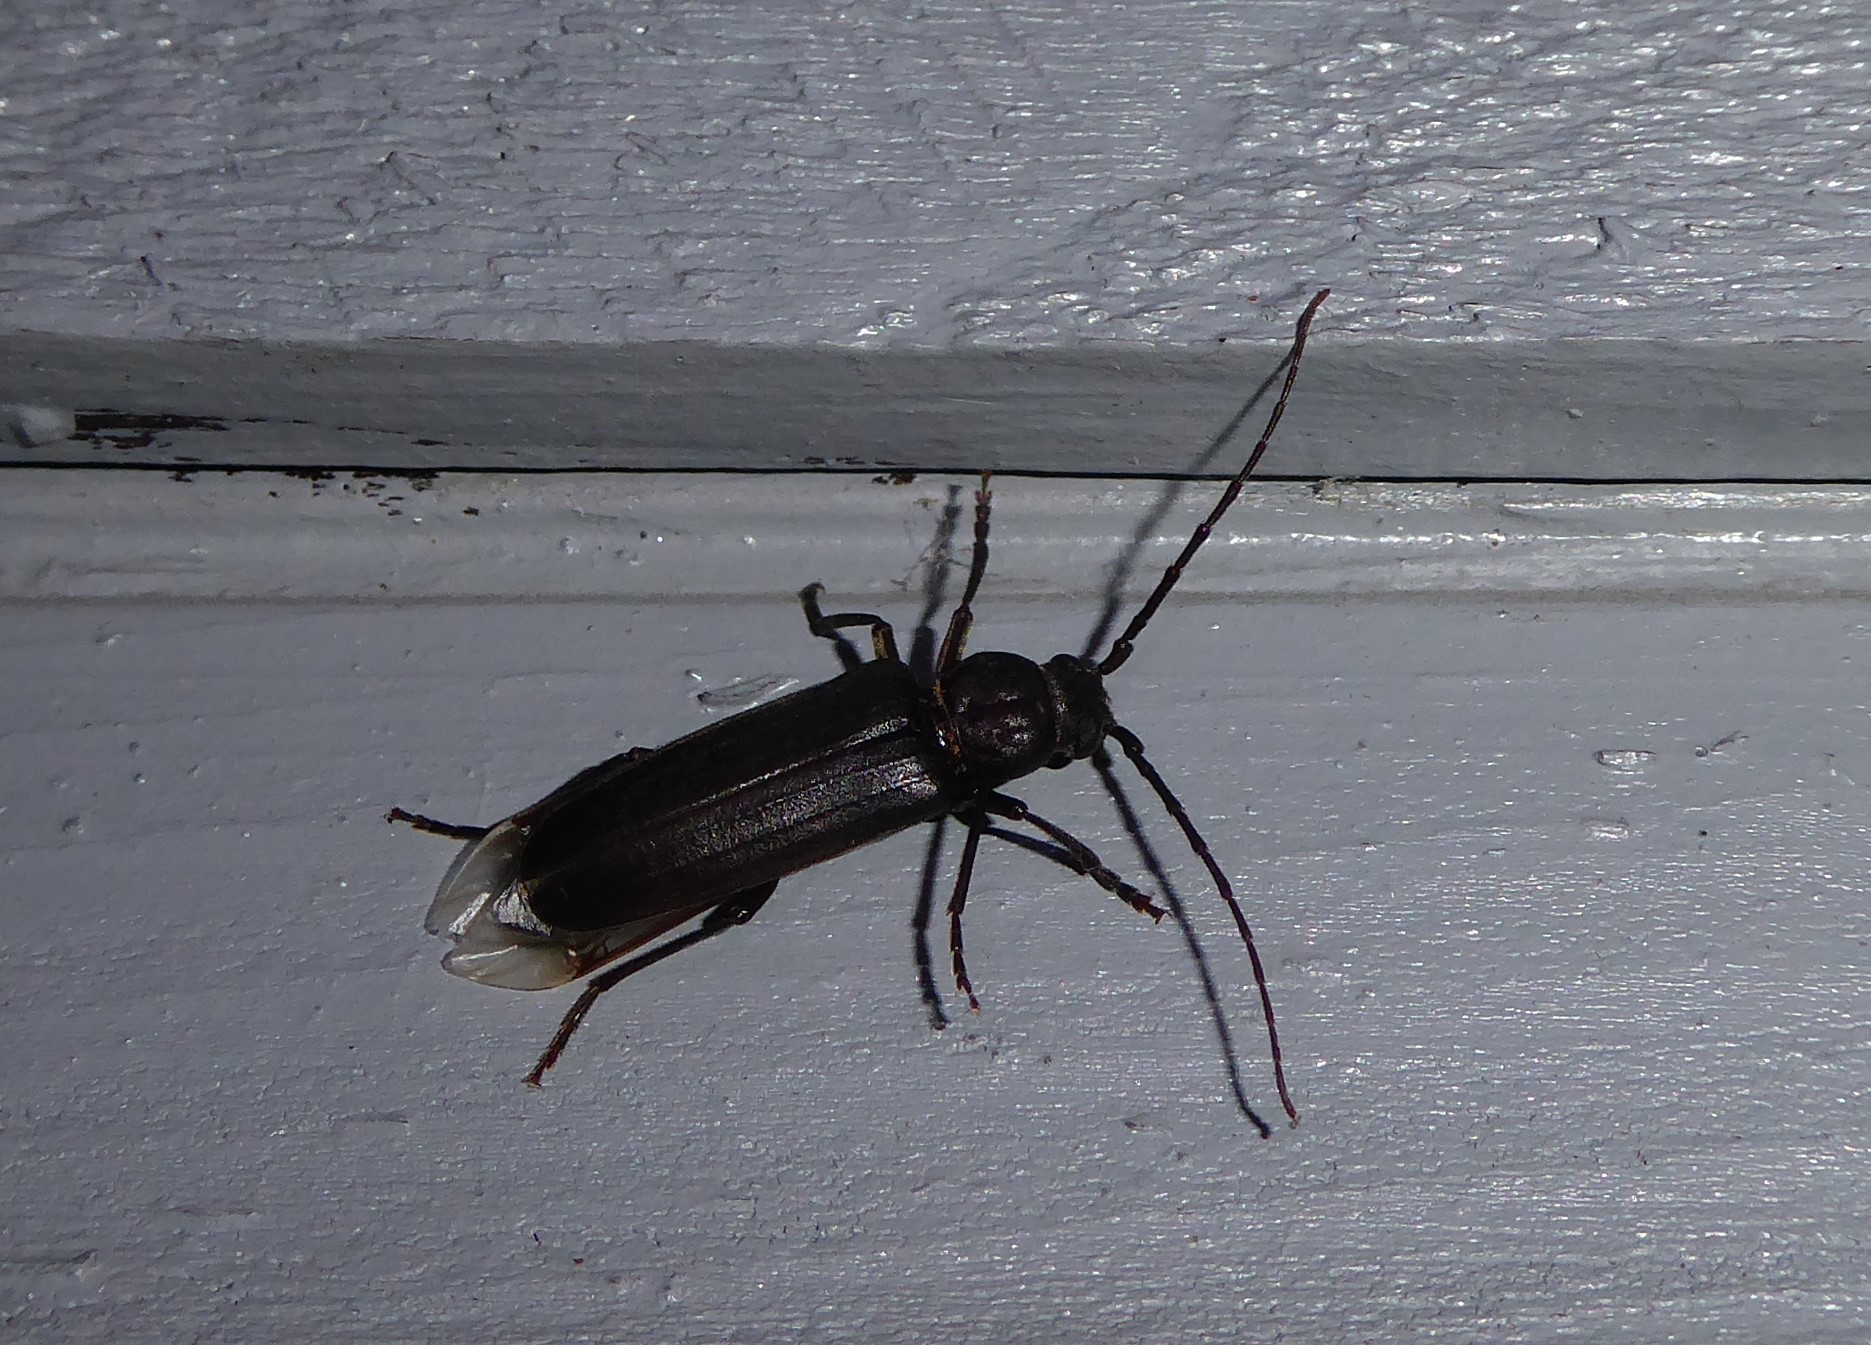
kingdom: Animalia
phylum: Arthropoda
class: Insecta
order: Coleoptera
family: Cerambycidae
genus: Arhopalus
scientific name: Arhopalus ferus
